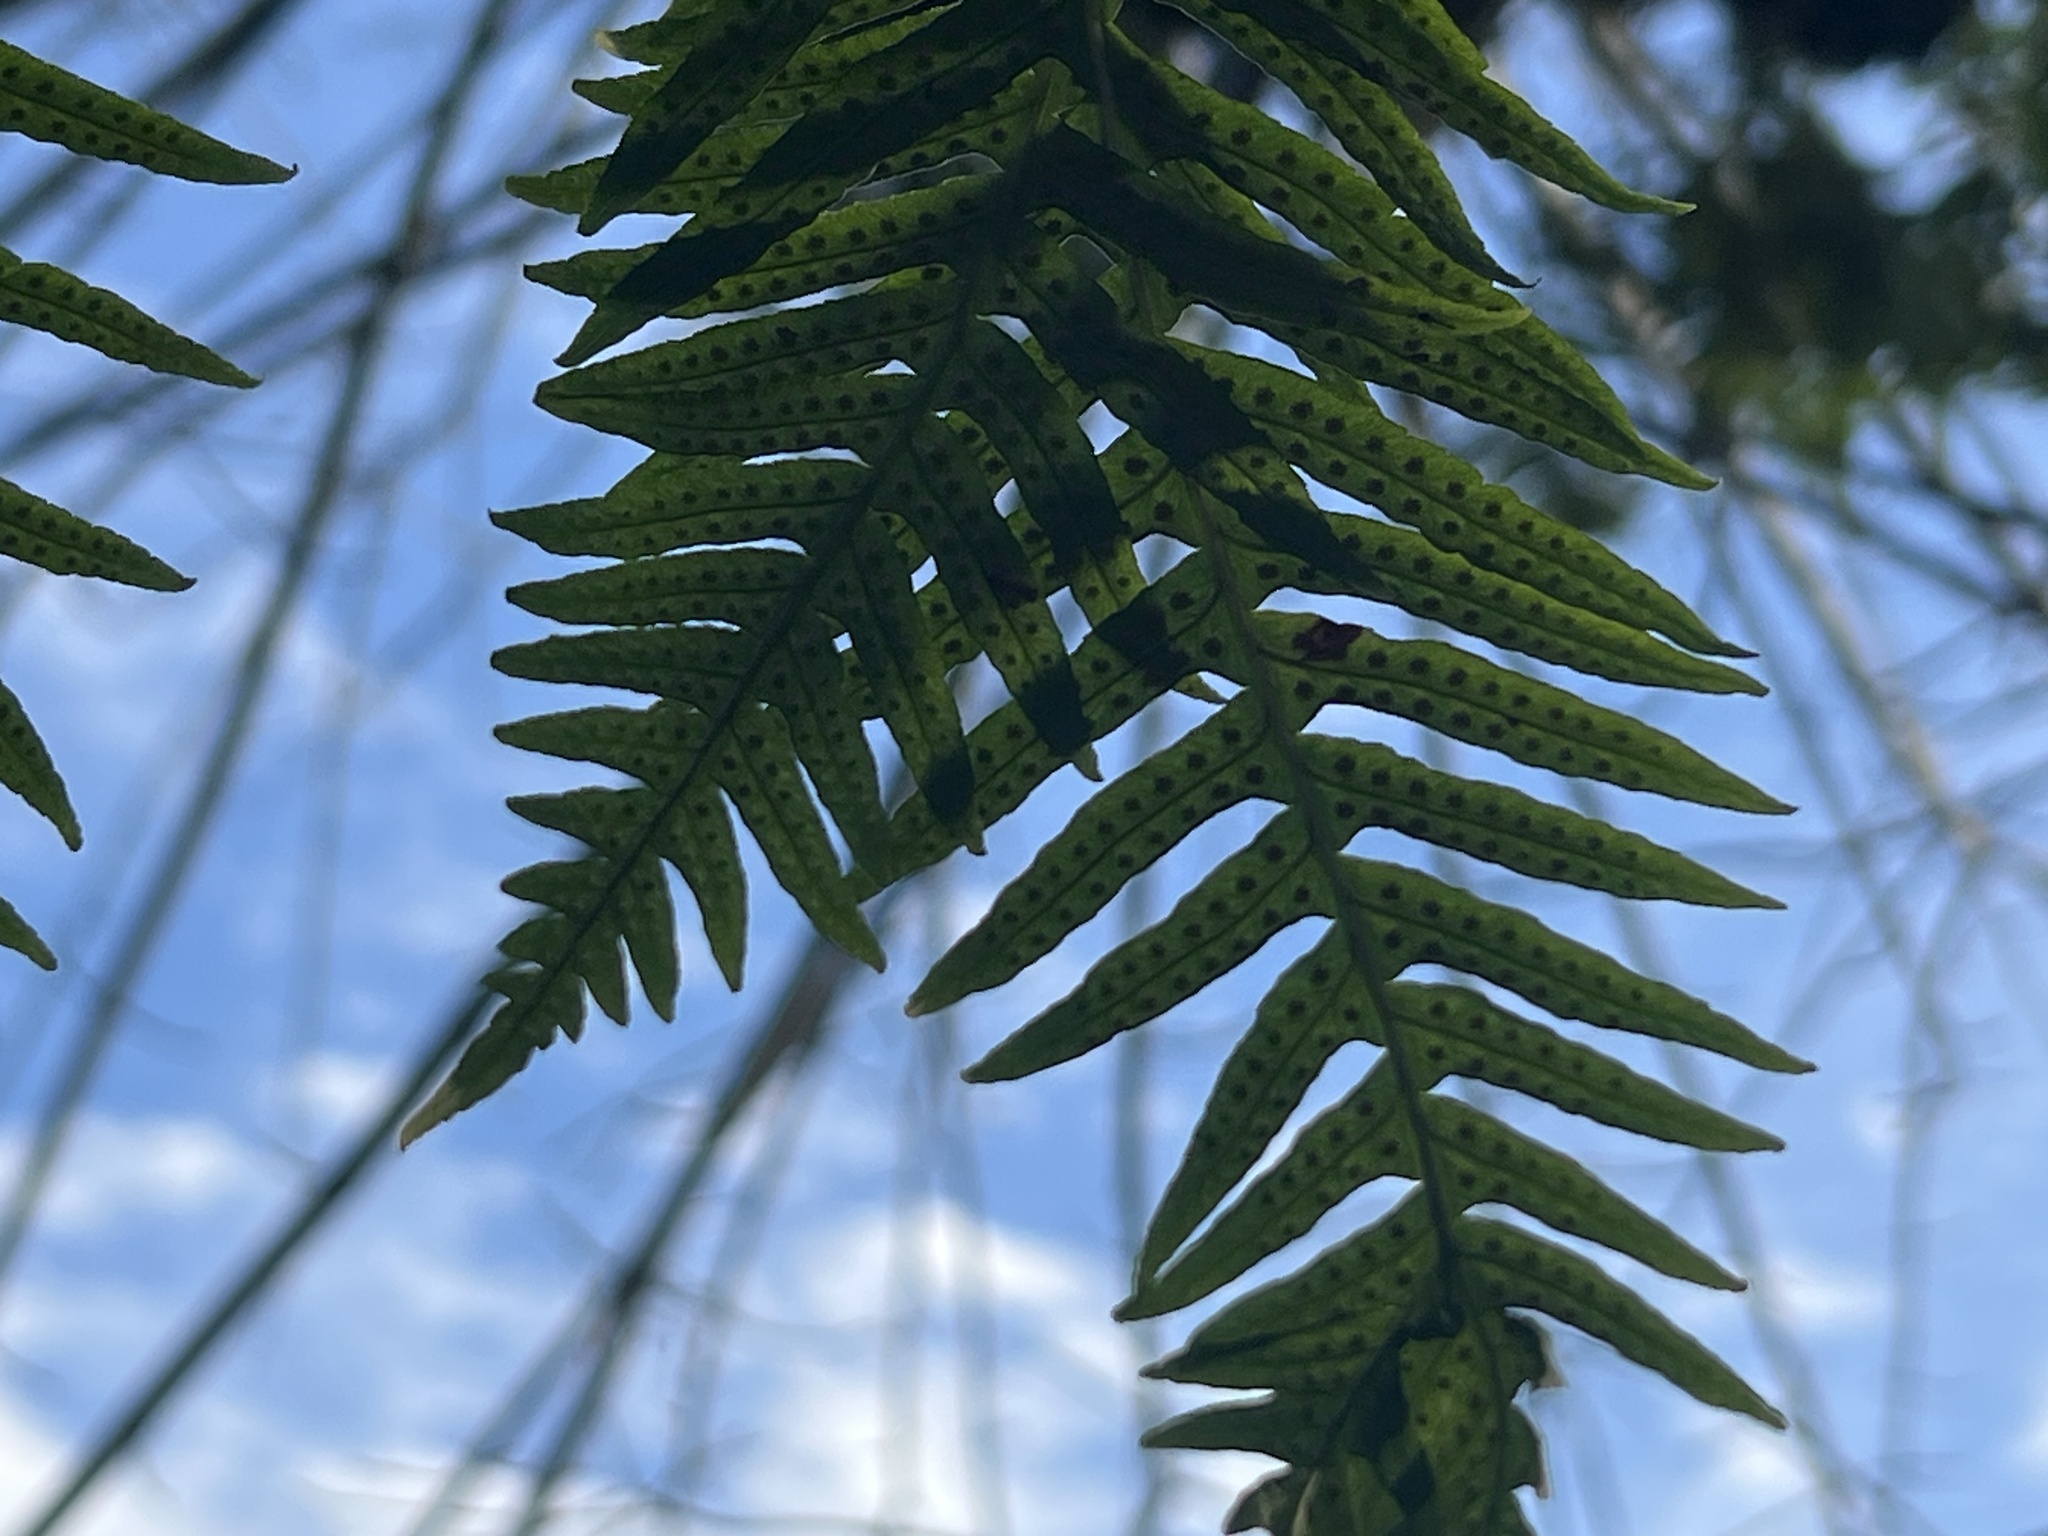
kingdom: Plantae
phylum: Tracheophyta
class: Polypodiopsida
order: Polypodiales
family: Polypodiaceae
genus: Polypodium
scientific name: Polypodium glycyrrhiza
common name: Licorice fern
